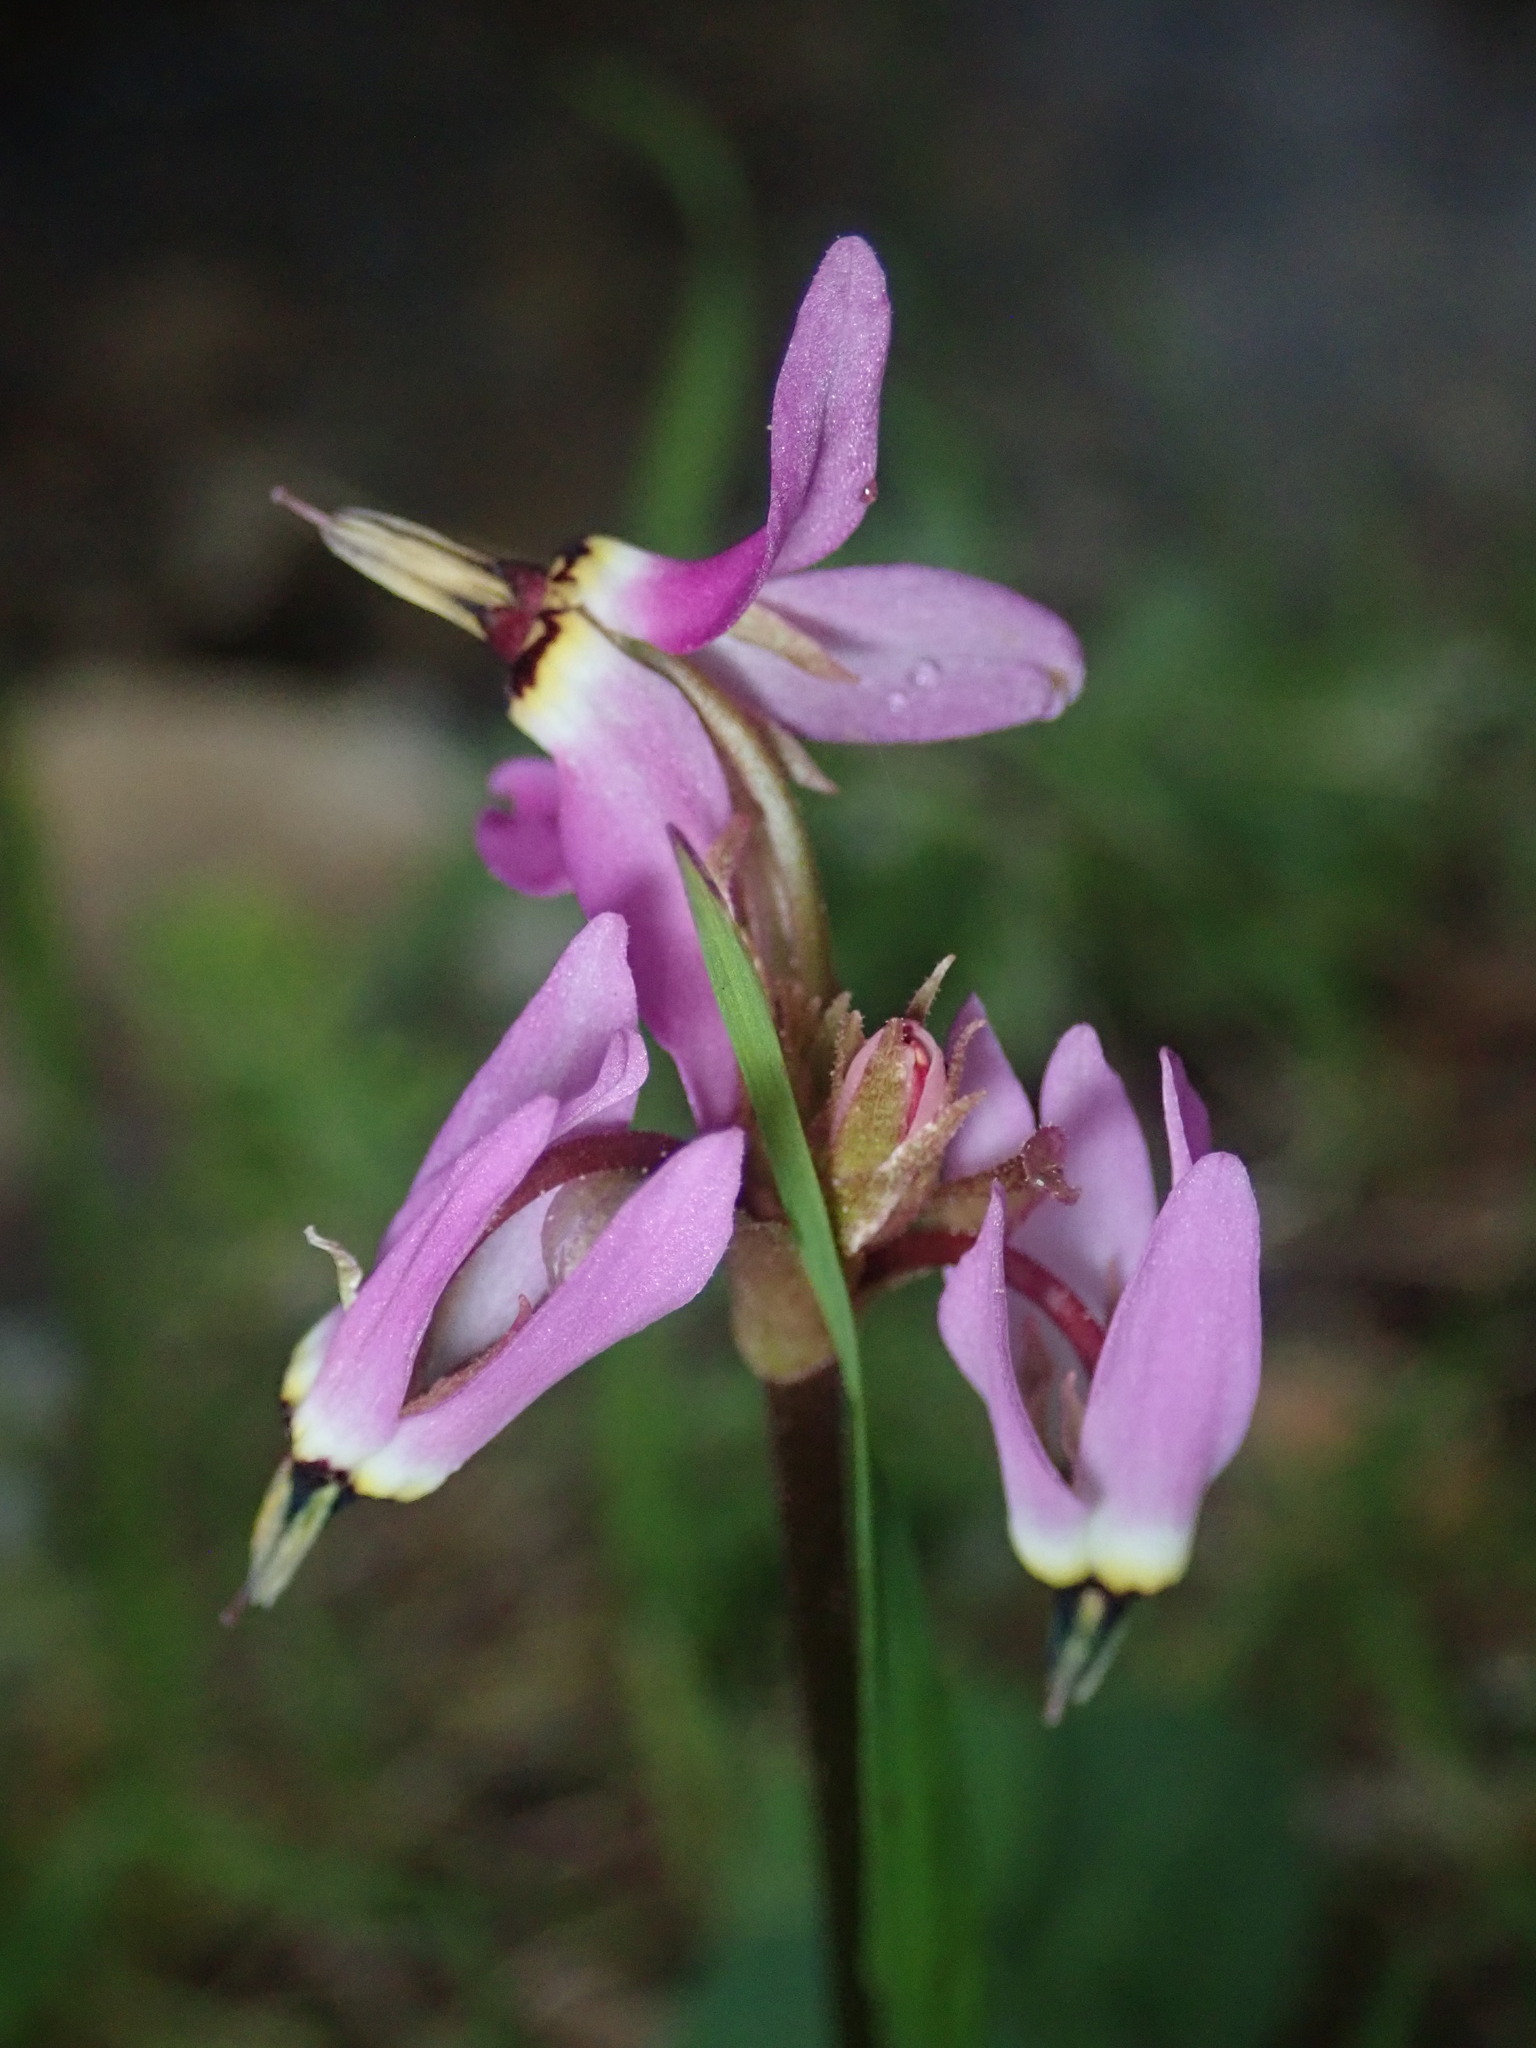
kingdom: Plantae
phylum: Tracheophyta
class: Magnoliopsida
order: Ericales
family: Primulaceae
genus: Dodecatheon
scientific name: Dodecatheon hendersonii
